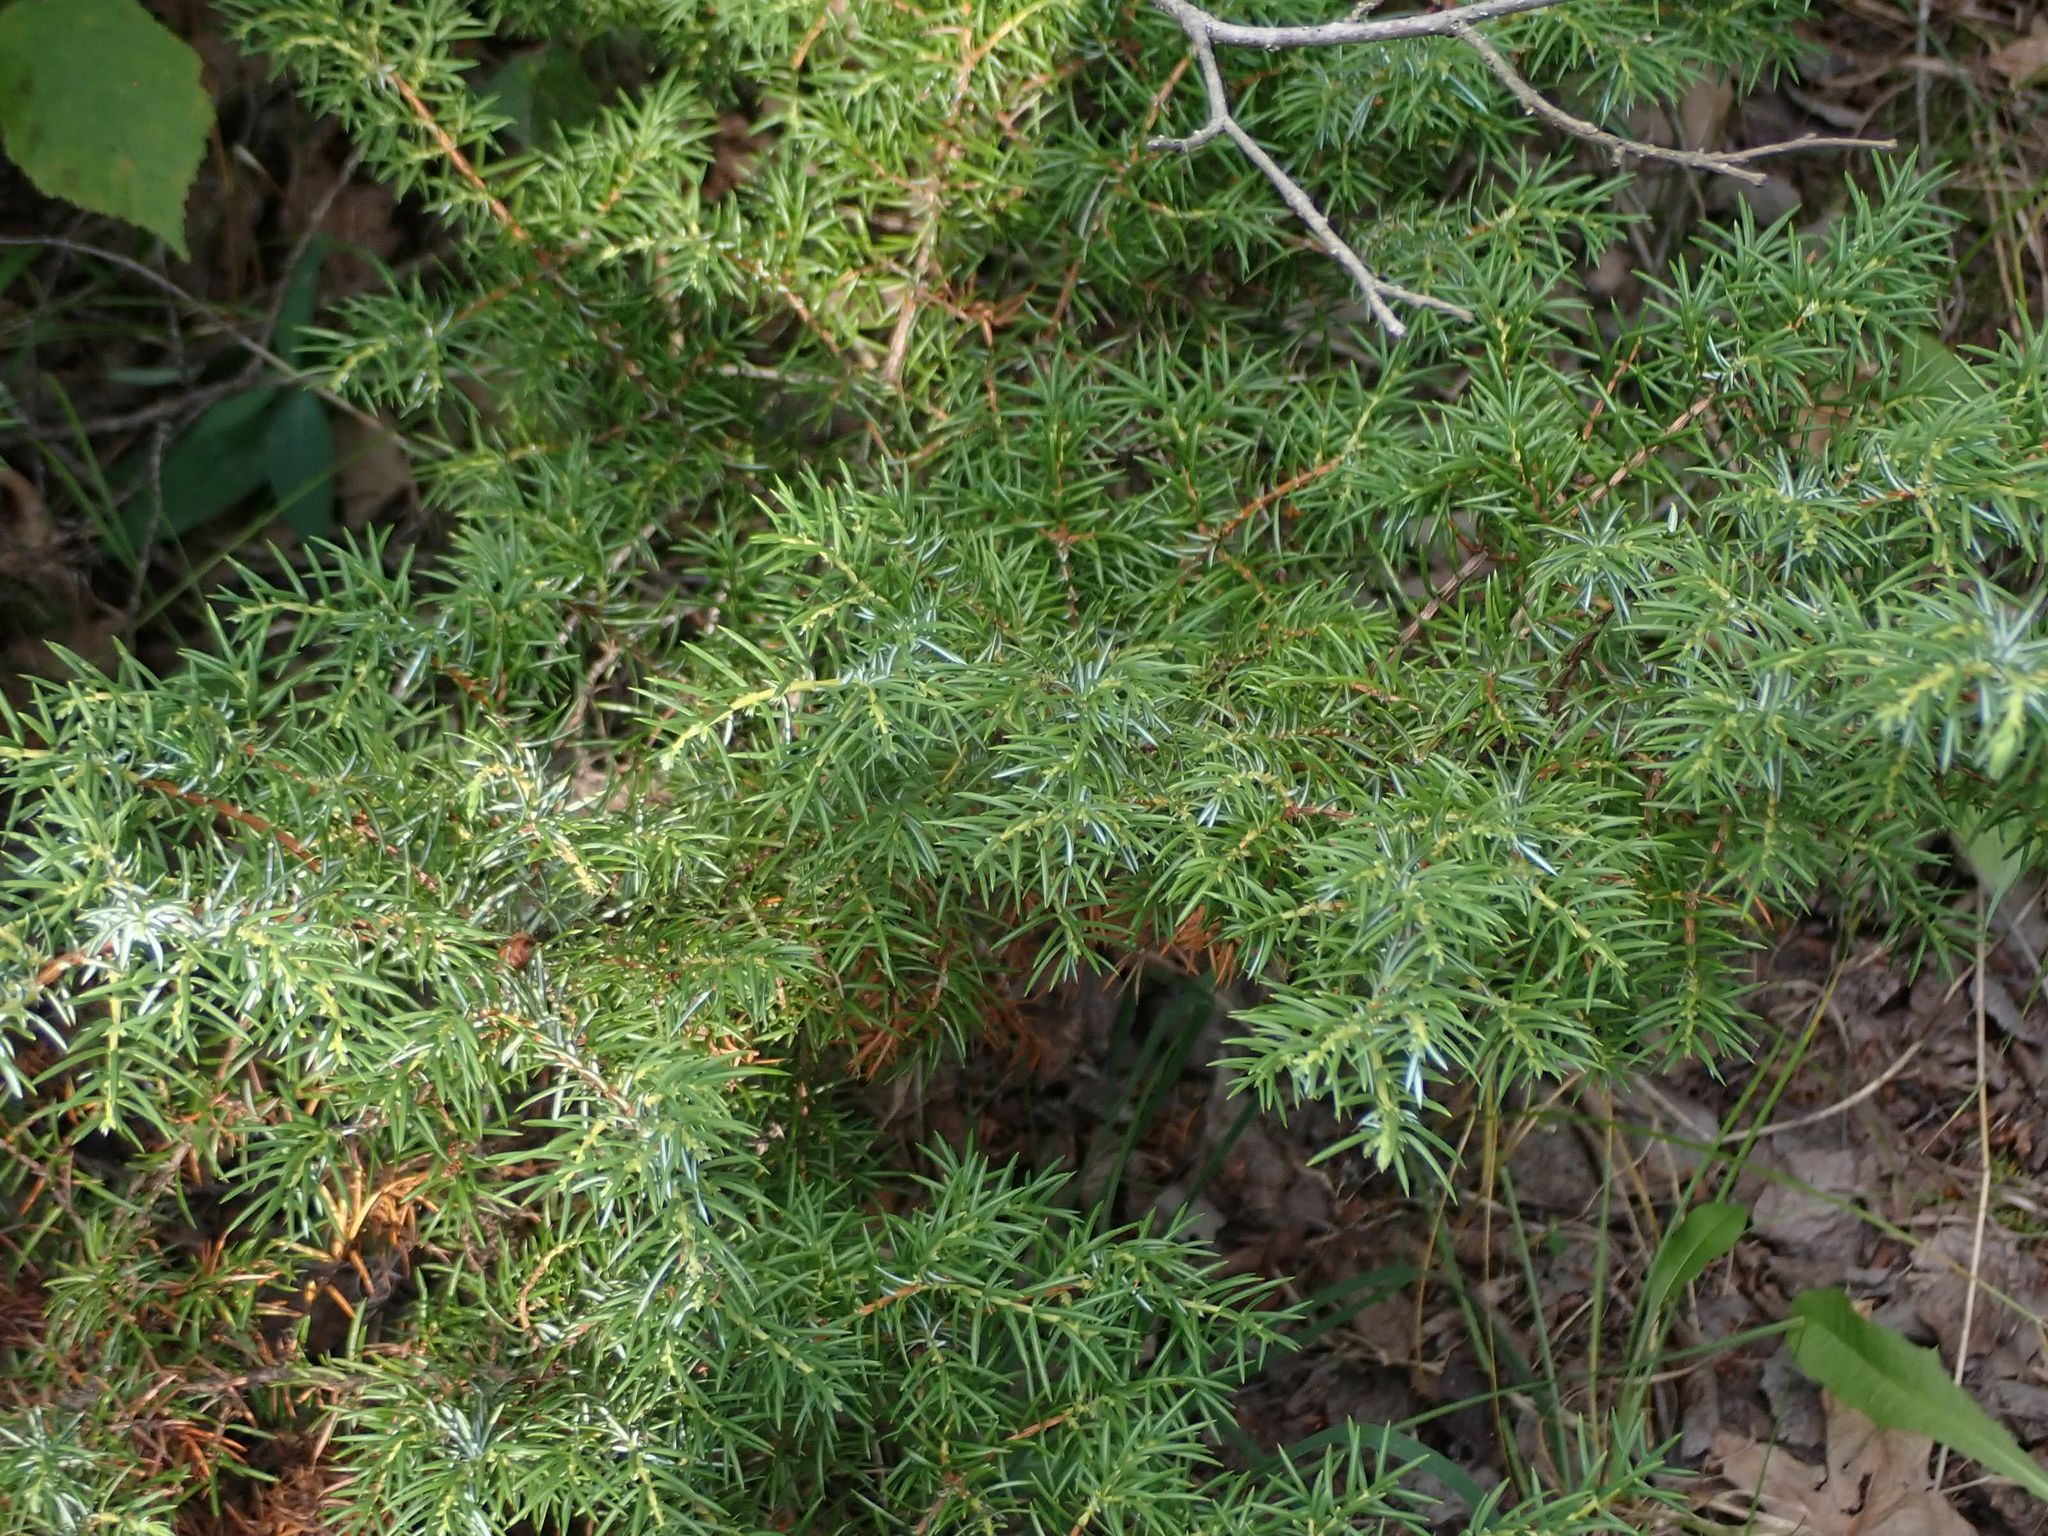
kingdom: Plantae
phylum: Tracheophyta
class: Pinopsida
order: Pinales
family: Cupressaceae
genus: Juniperus
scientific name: Juniperus communis
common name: Common juniper
